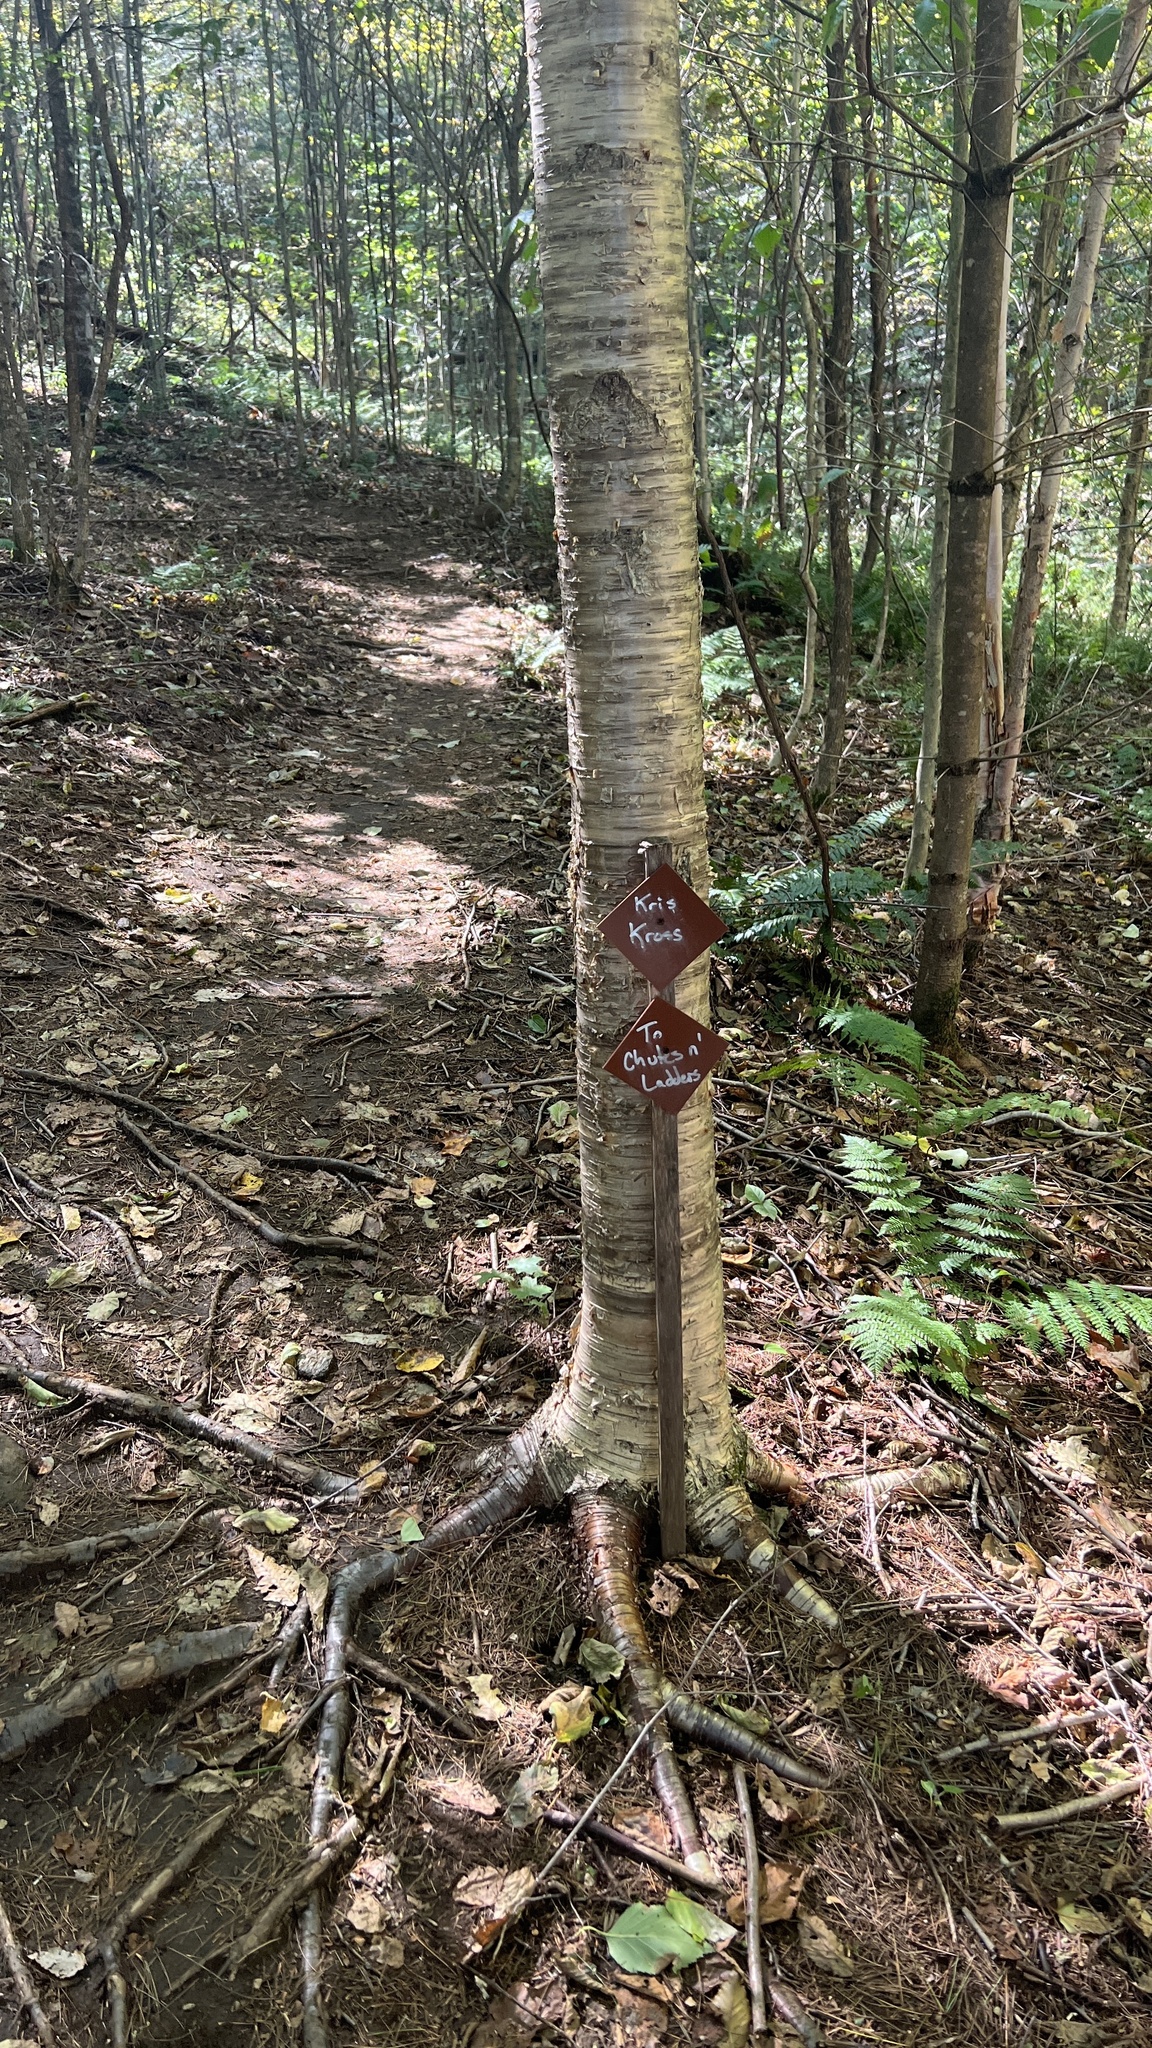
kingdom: Plantae
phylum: Tracheophyta
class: Magnoliopsida
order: Fagales
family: Betulaceae
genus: Betula
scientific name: Betula alleghaniensis
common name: Yellow birch
